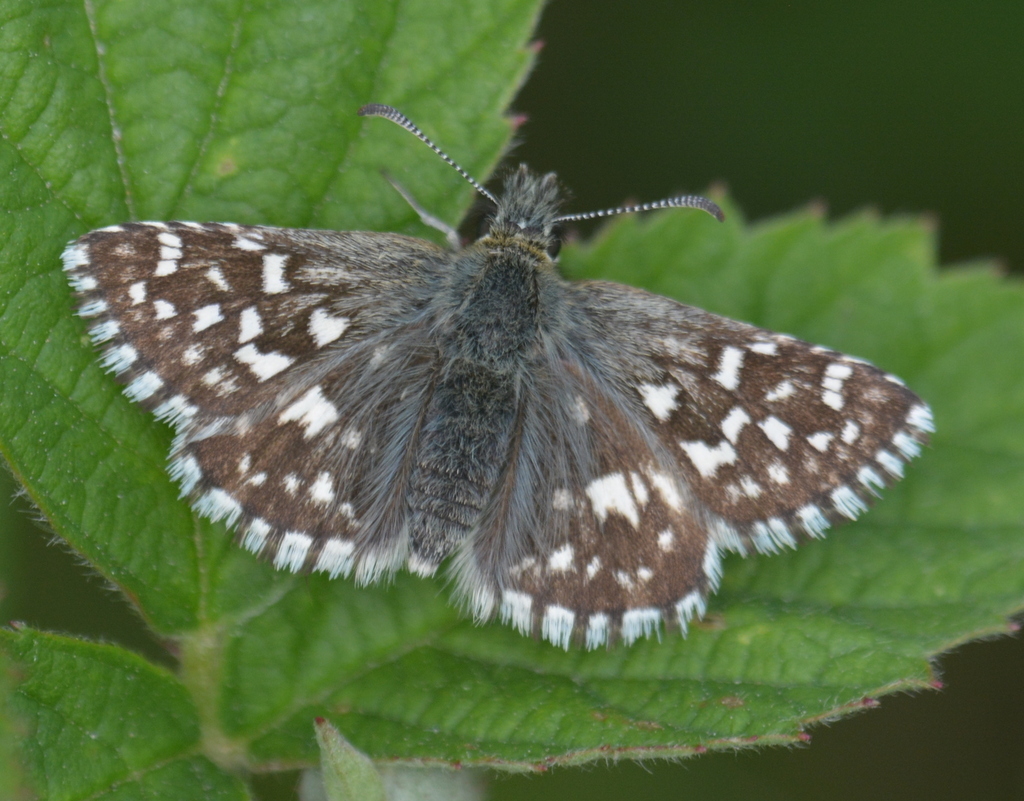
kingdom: Animalia
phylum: Arthropoda
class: Insecta
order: Lepidoptera
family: Hesperiidae
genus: Pyrgus
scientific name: Pyrgus malvae
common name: Grizzled skipper
